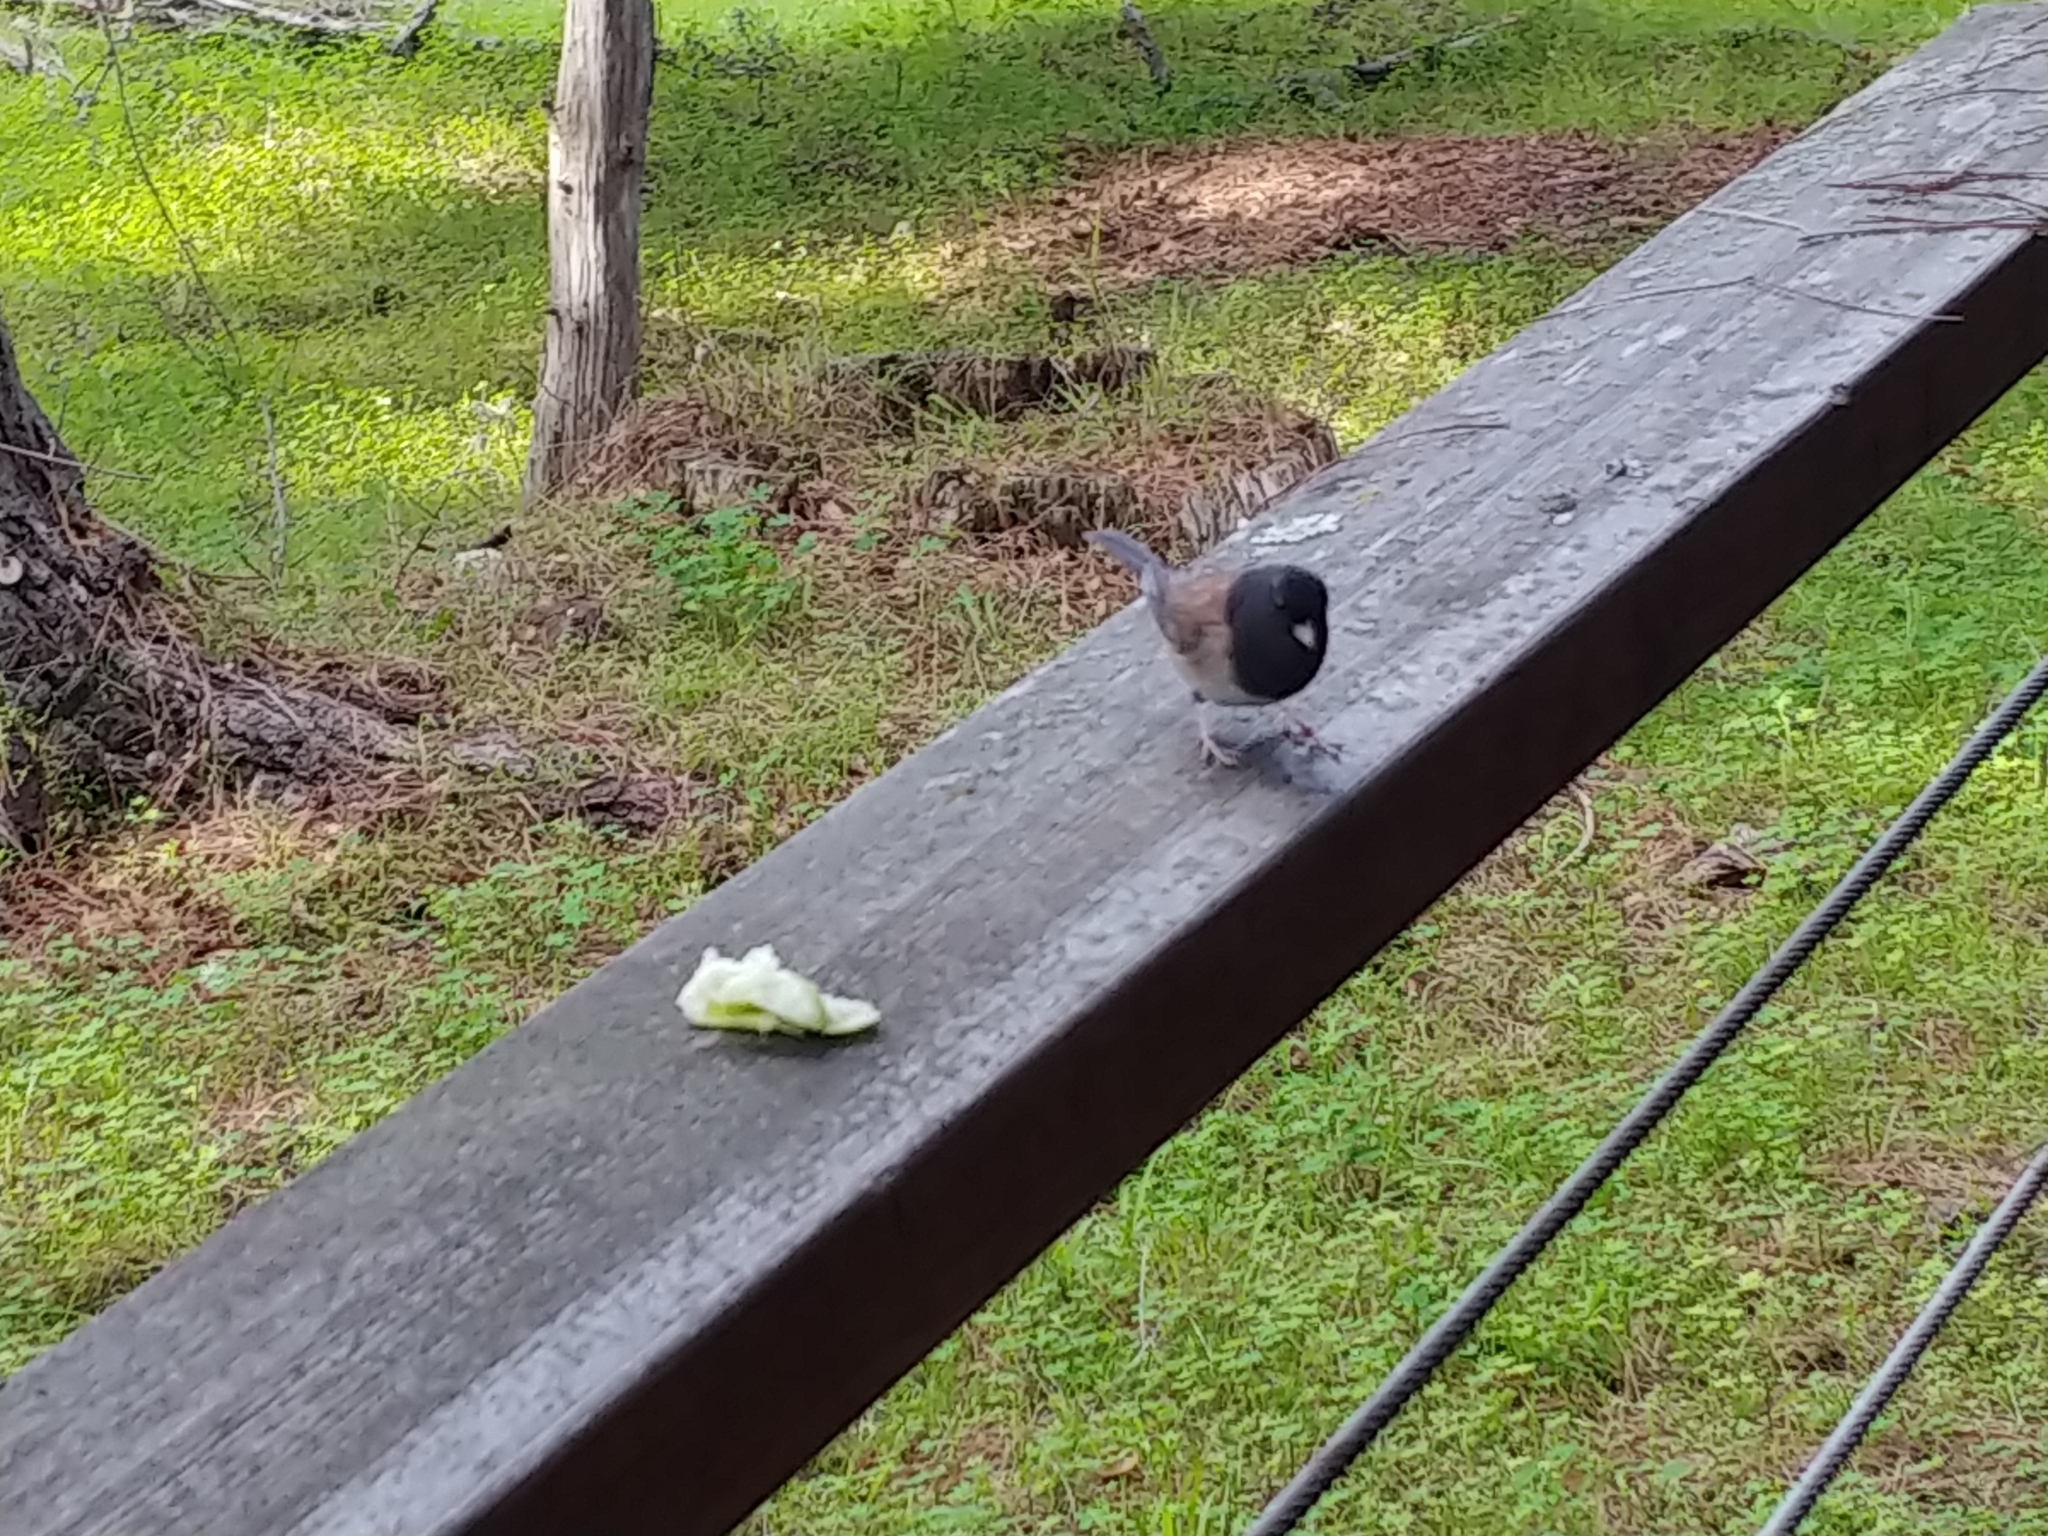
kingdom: Animalia
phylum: Chordata
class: Aves
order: Passeriformes
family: Passerellidae
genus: Junco
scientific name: Junco hyemalis
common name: Dark-eyed junco
